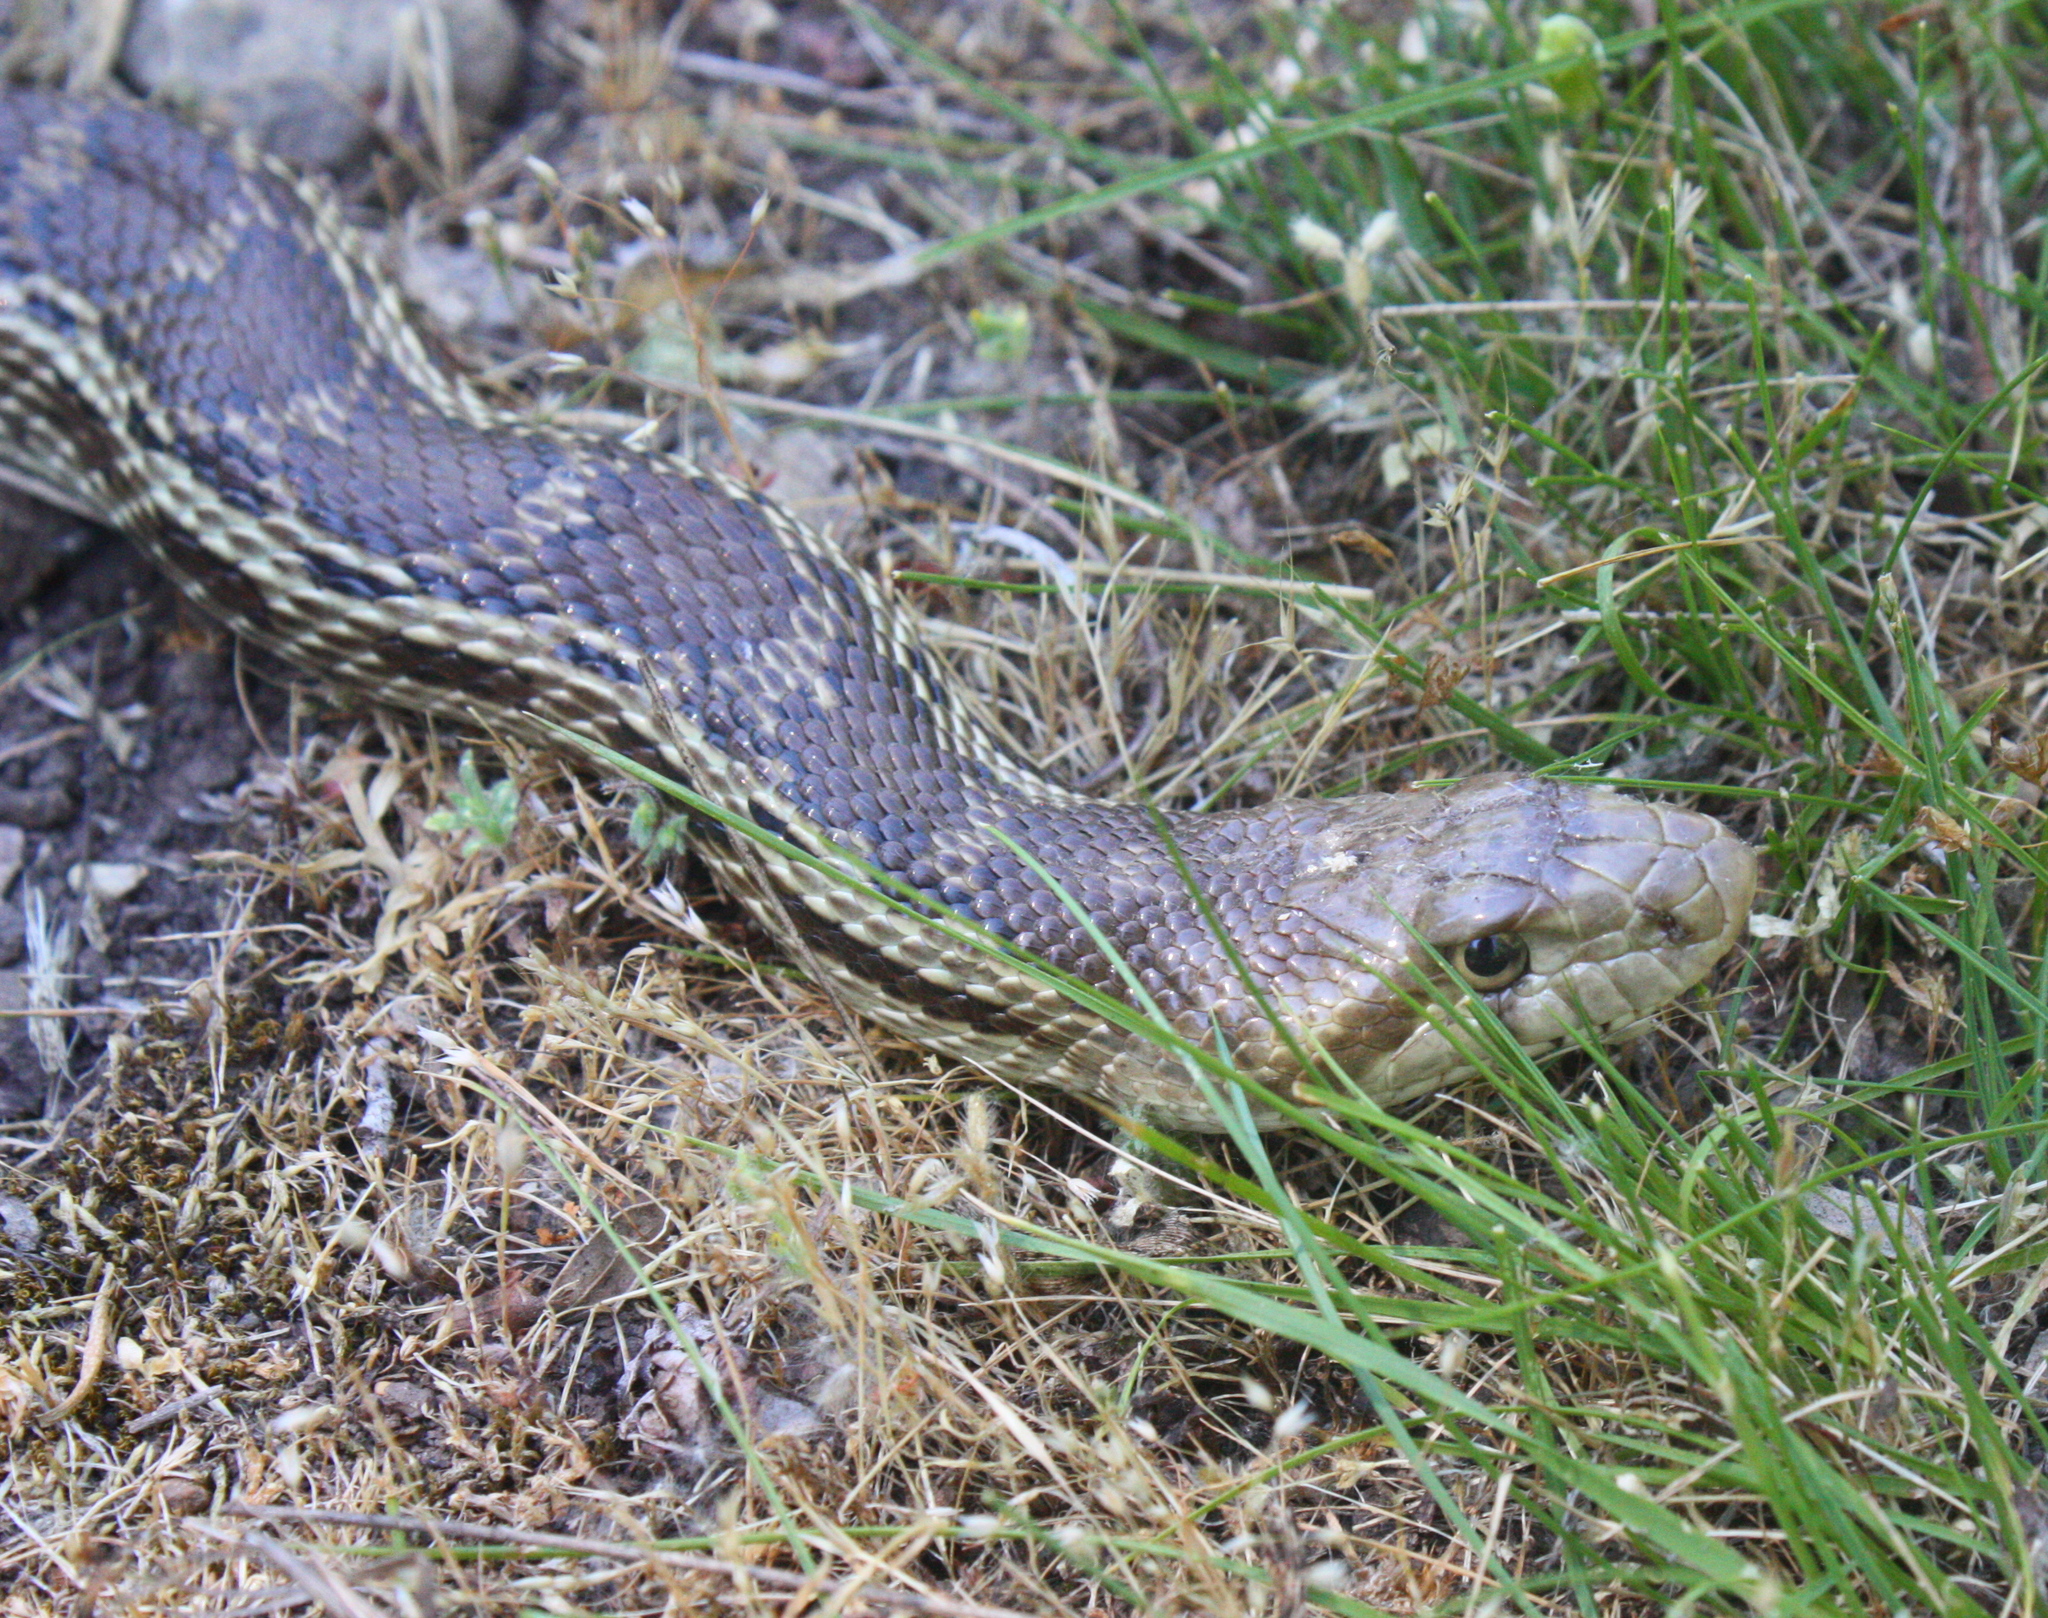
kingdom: Animalia
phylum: Chordata
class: Squamata
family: Colubridae
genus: Pituophis
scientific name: Pituophis catenifer
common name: Gopher snake
